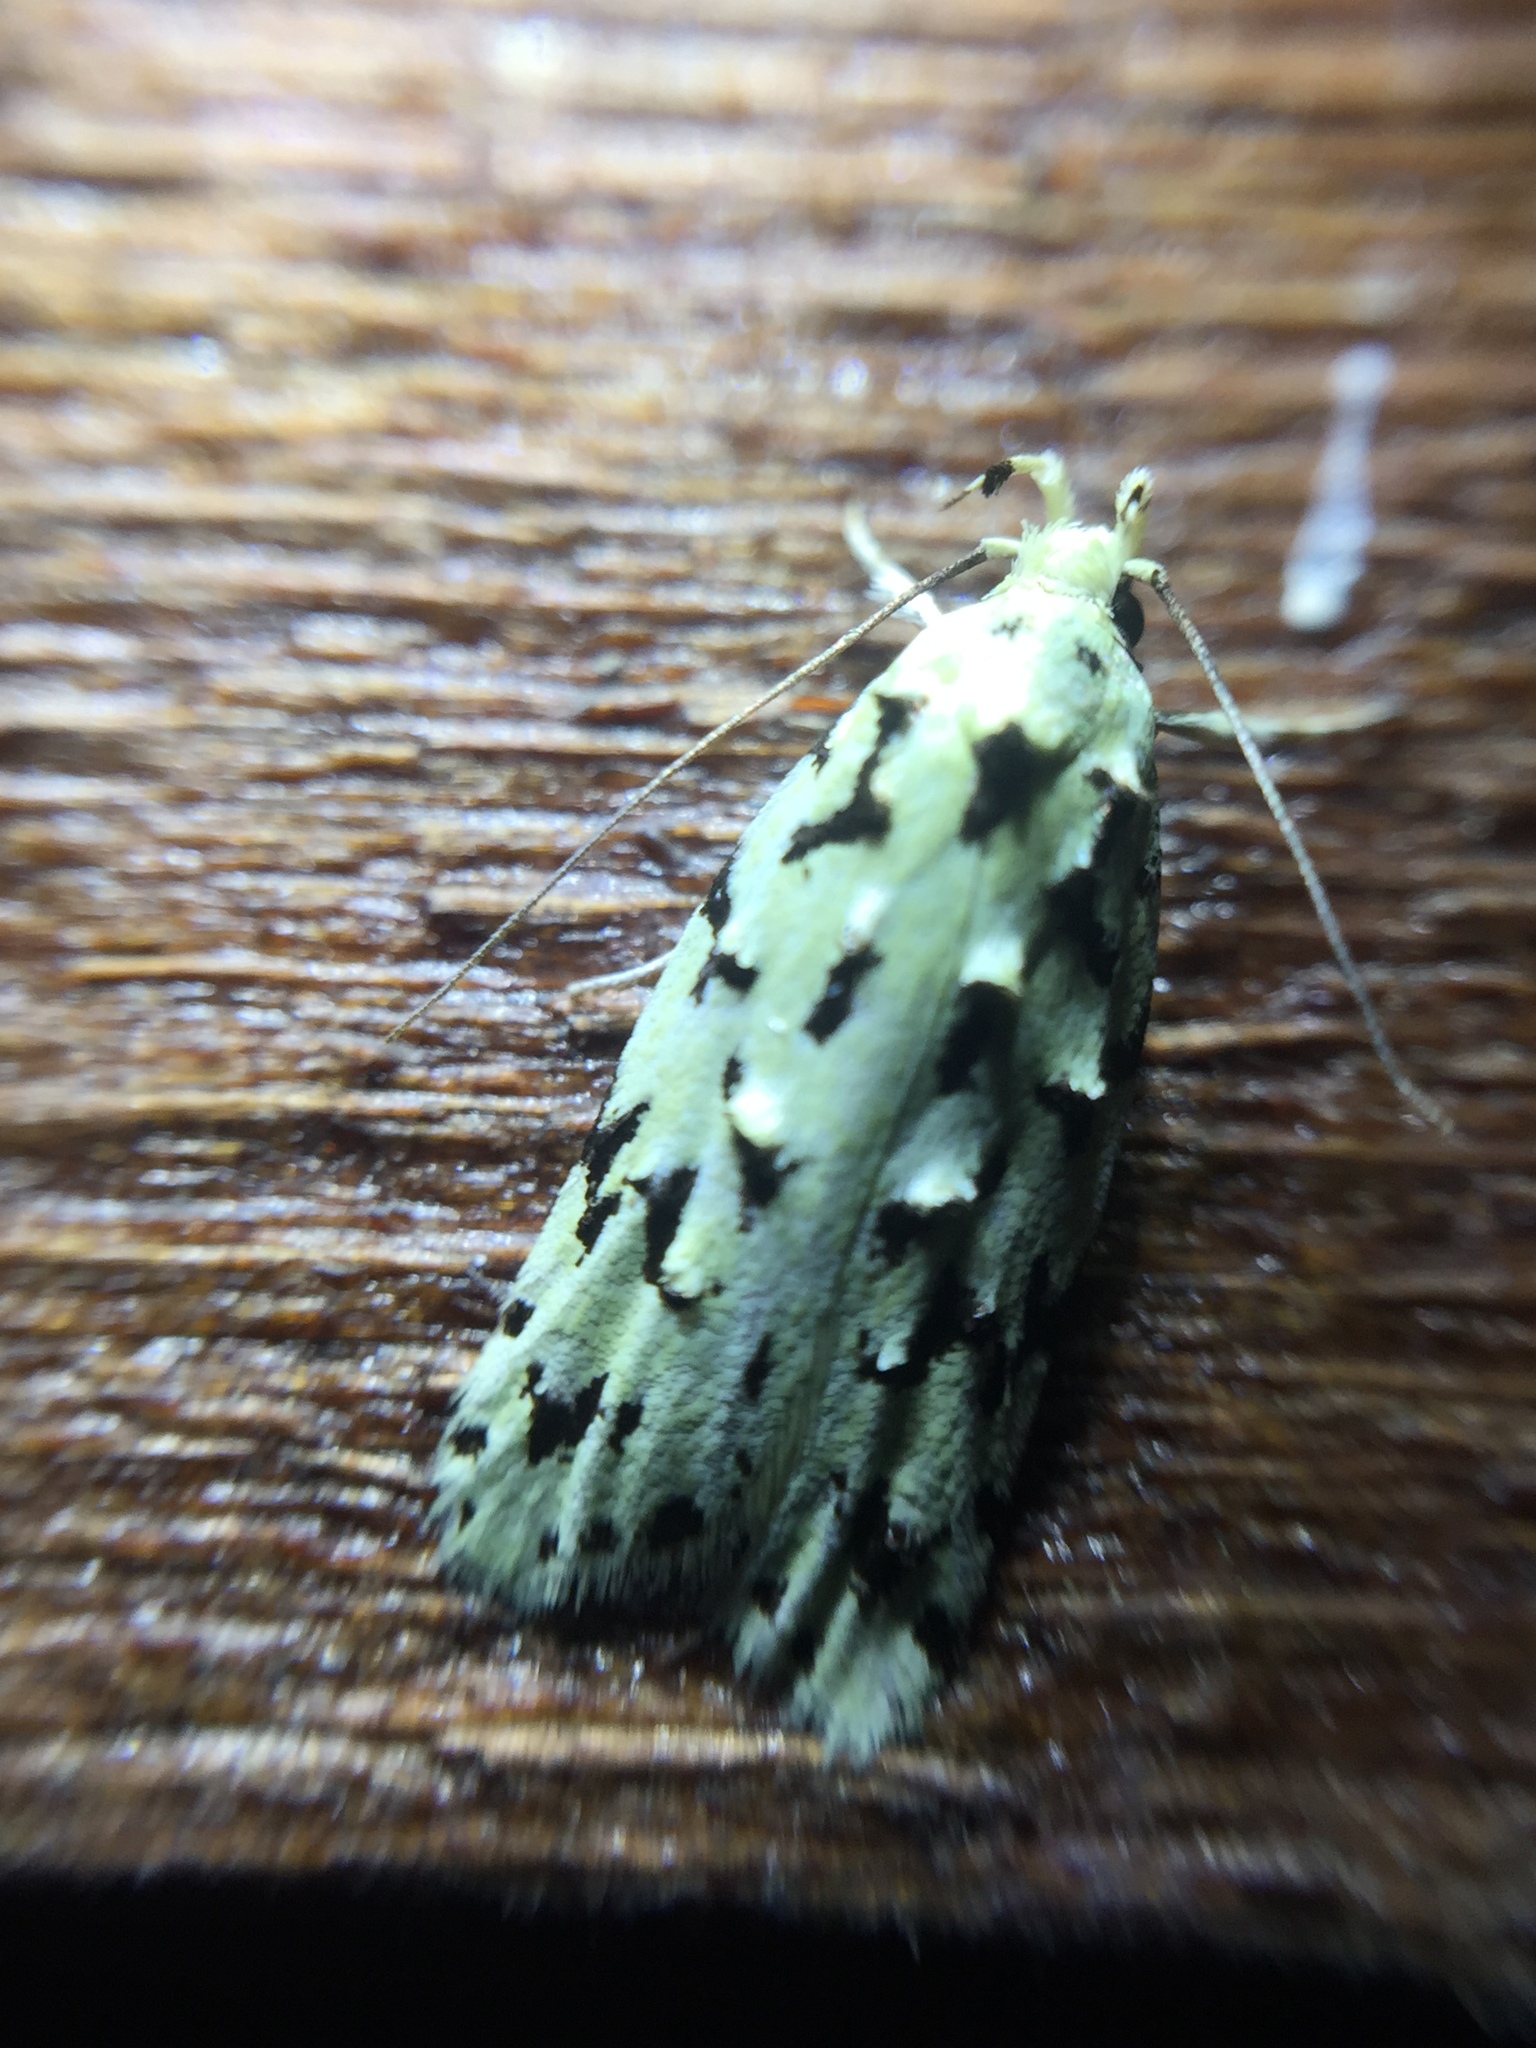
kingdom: Animalia
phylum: Arthropoda
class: Insecta
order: Lepidoptera
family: Oecophoridae
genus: Izatha
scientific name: Izatha peroneanella
